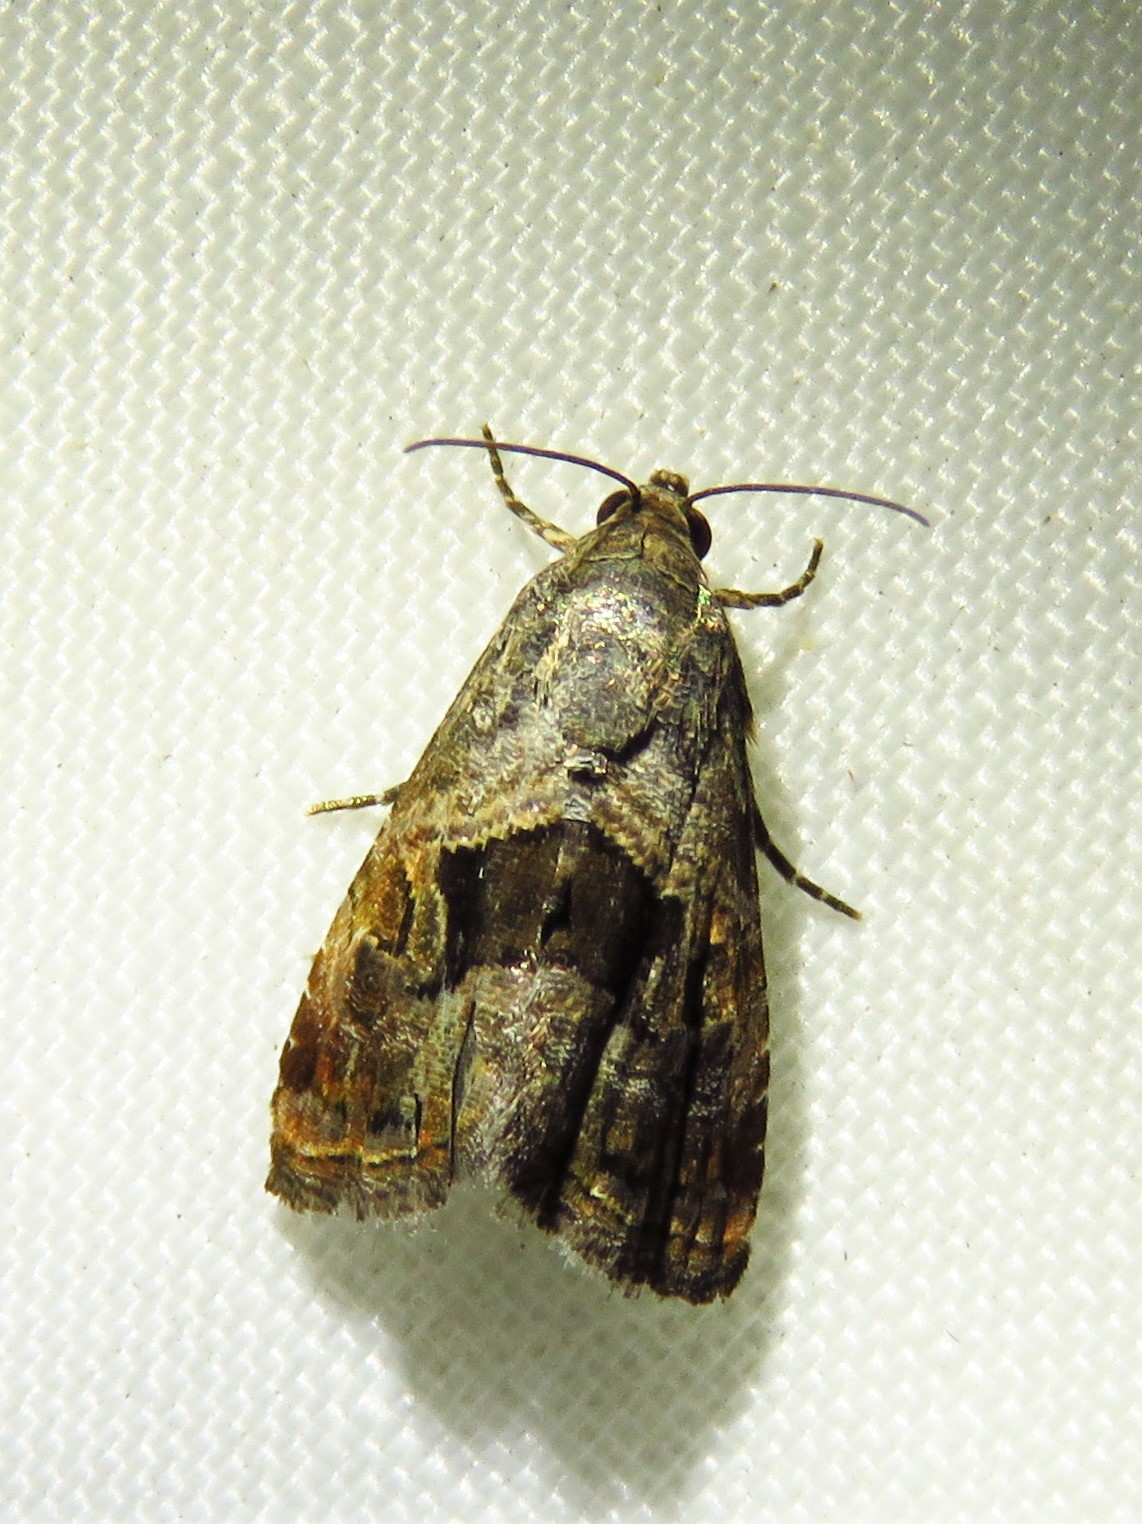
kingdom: Animalia
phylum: Arthropoda
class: Insecta
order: Lepidoptera
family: Noctuidae
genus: Tripudia
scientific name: Tripudia quadrifera
